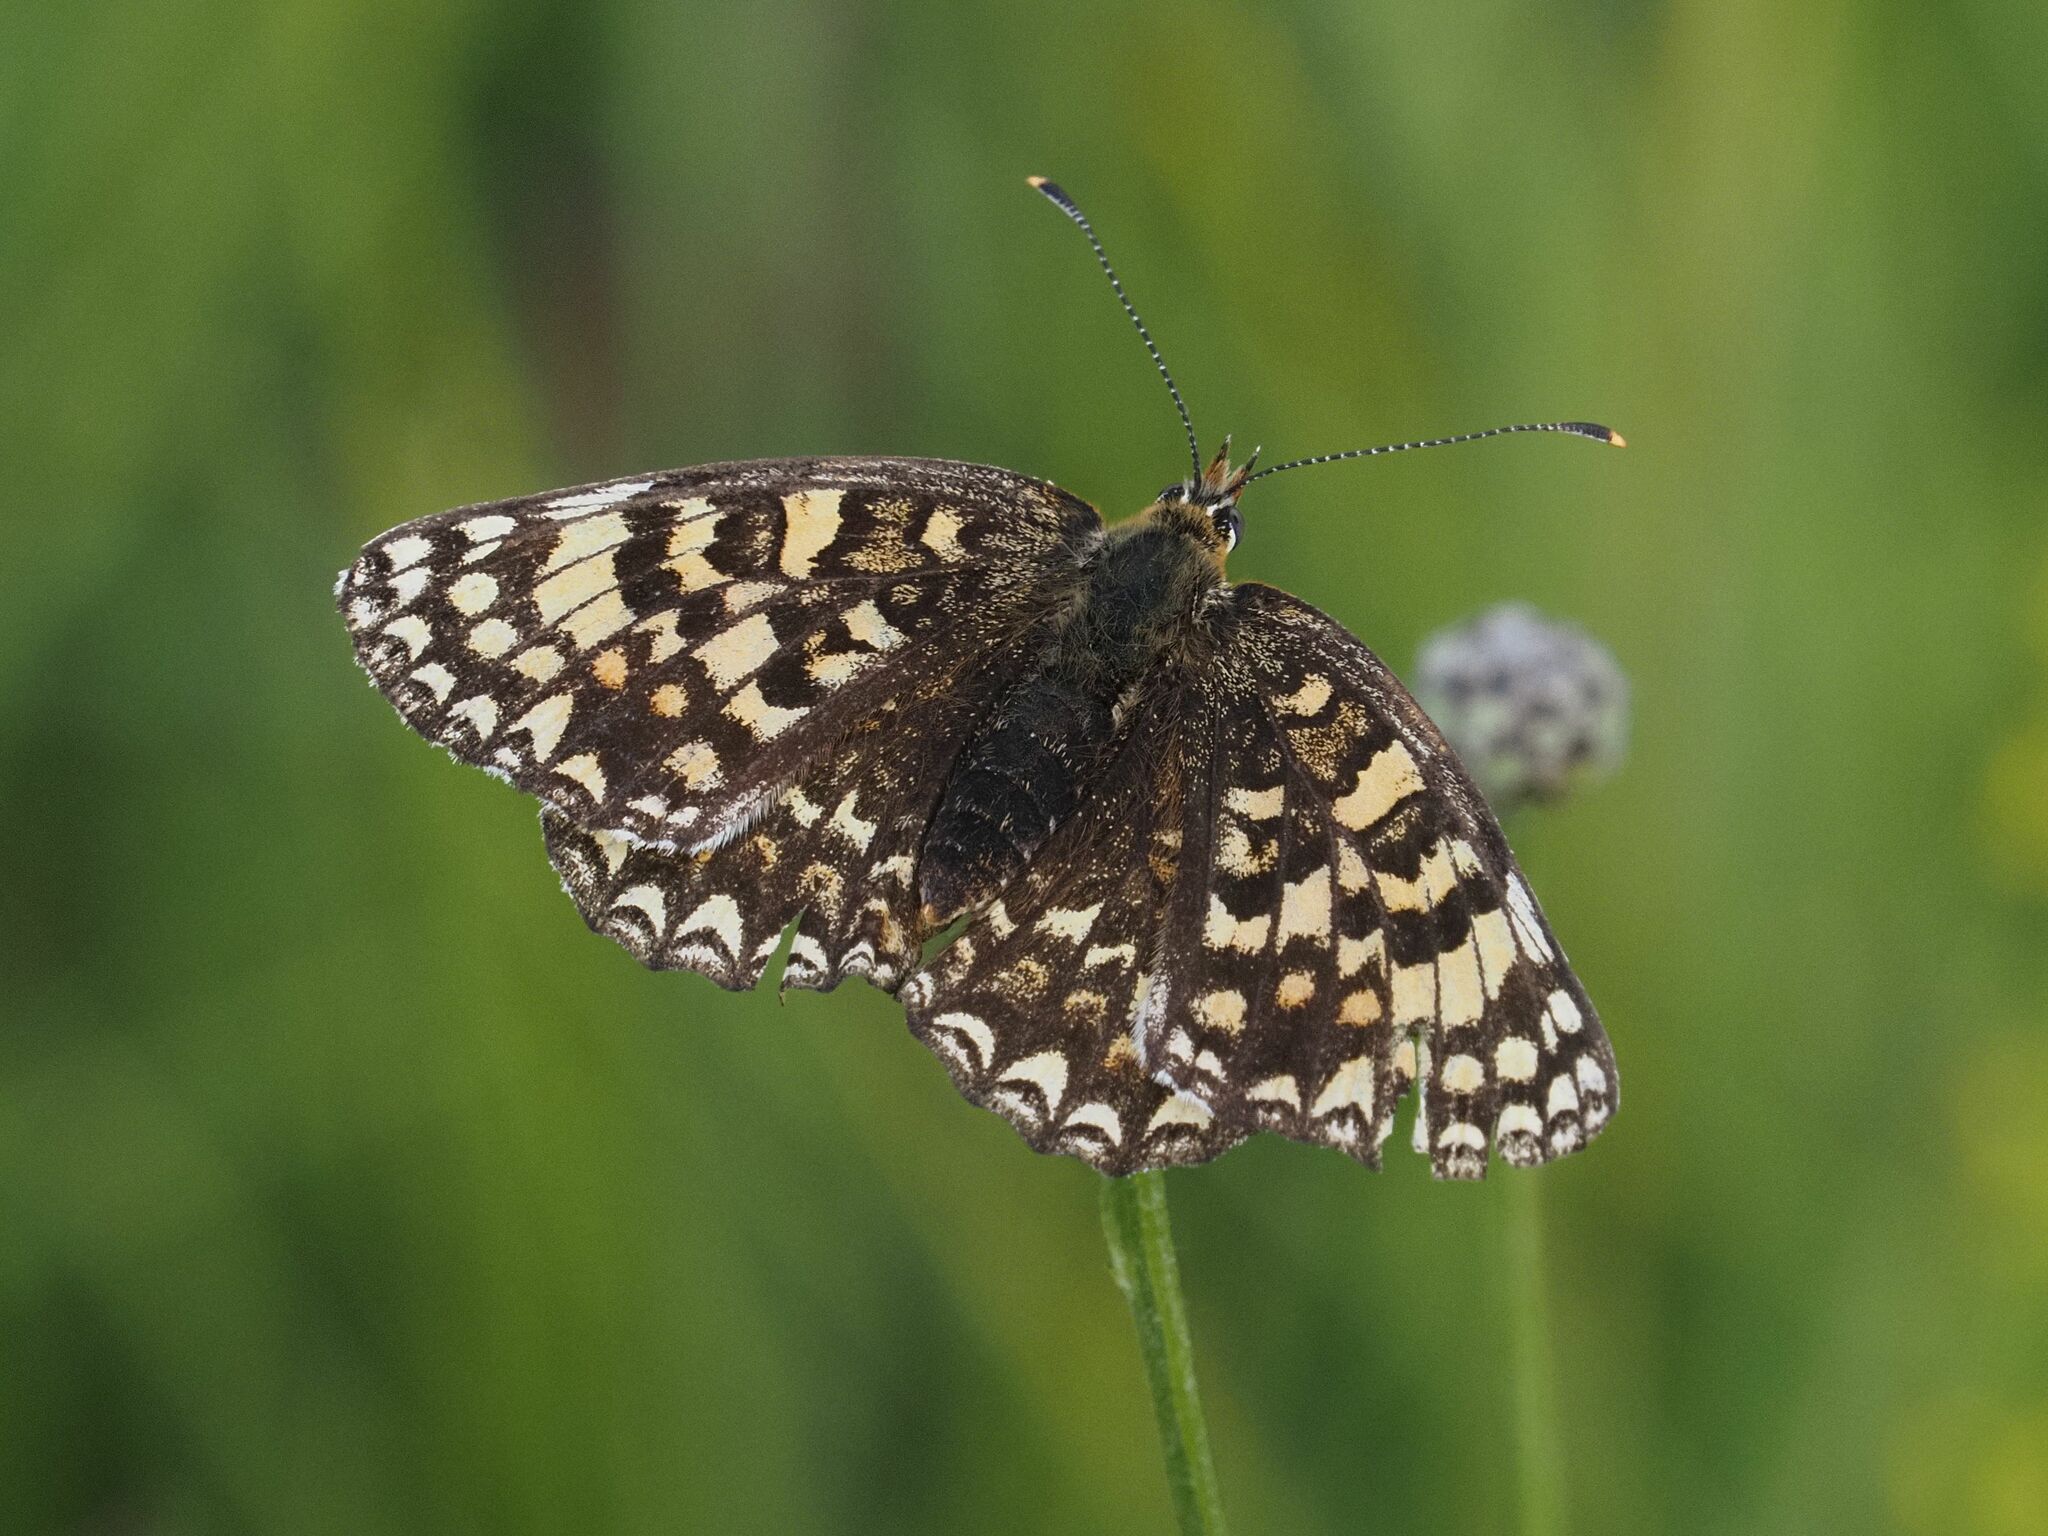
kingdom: Animalia
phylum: Arthropoda
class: Insecta
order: Lepidoptera
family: Nymphalidae
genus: Melitaea
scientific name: Melitaea phoebe
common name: Knapweed fritillary
